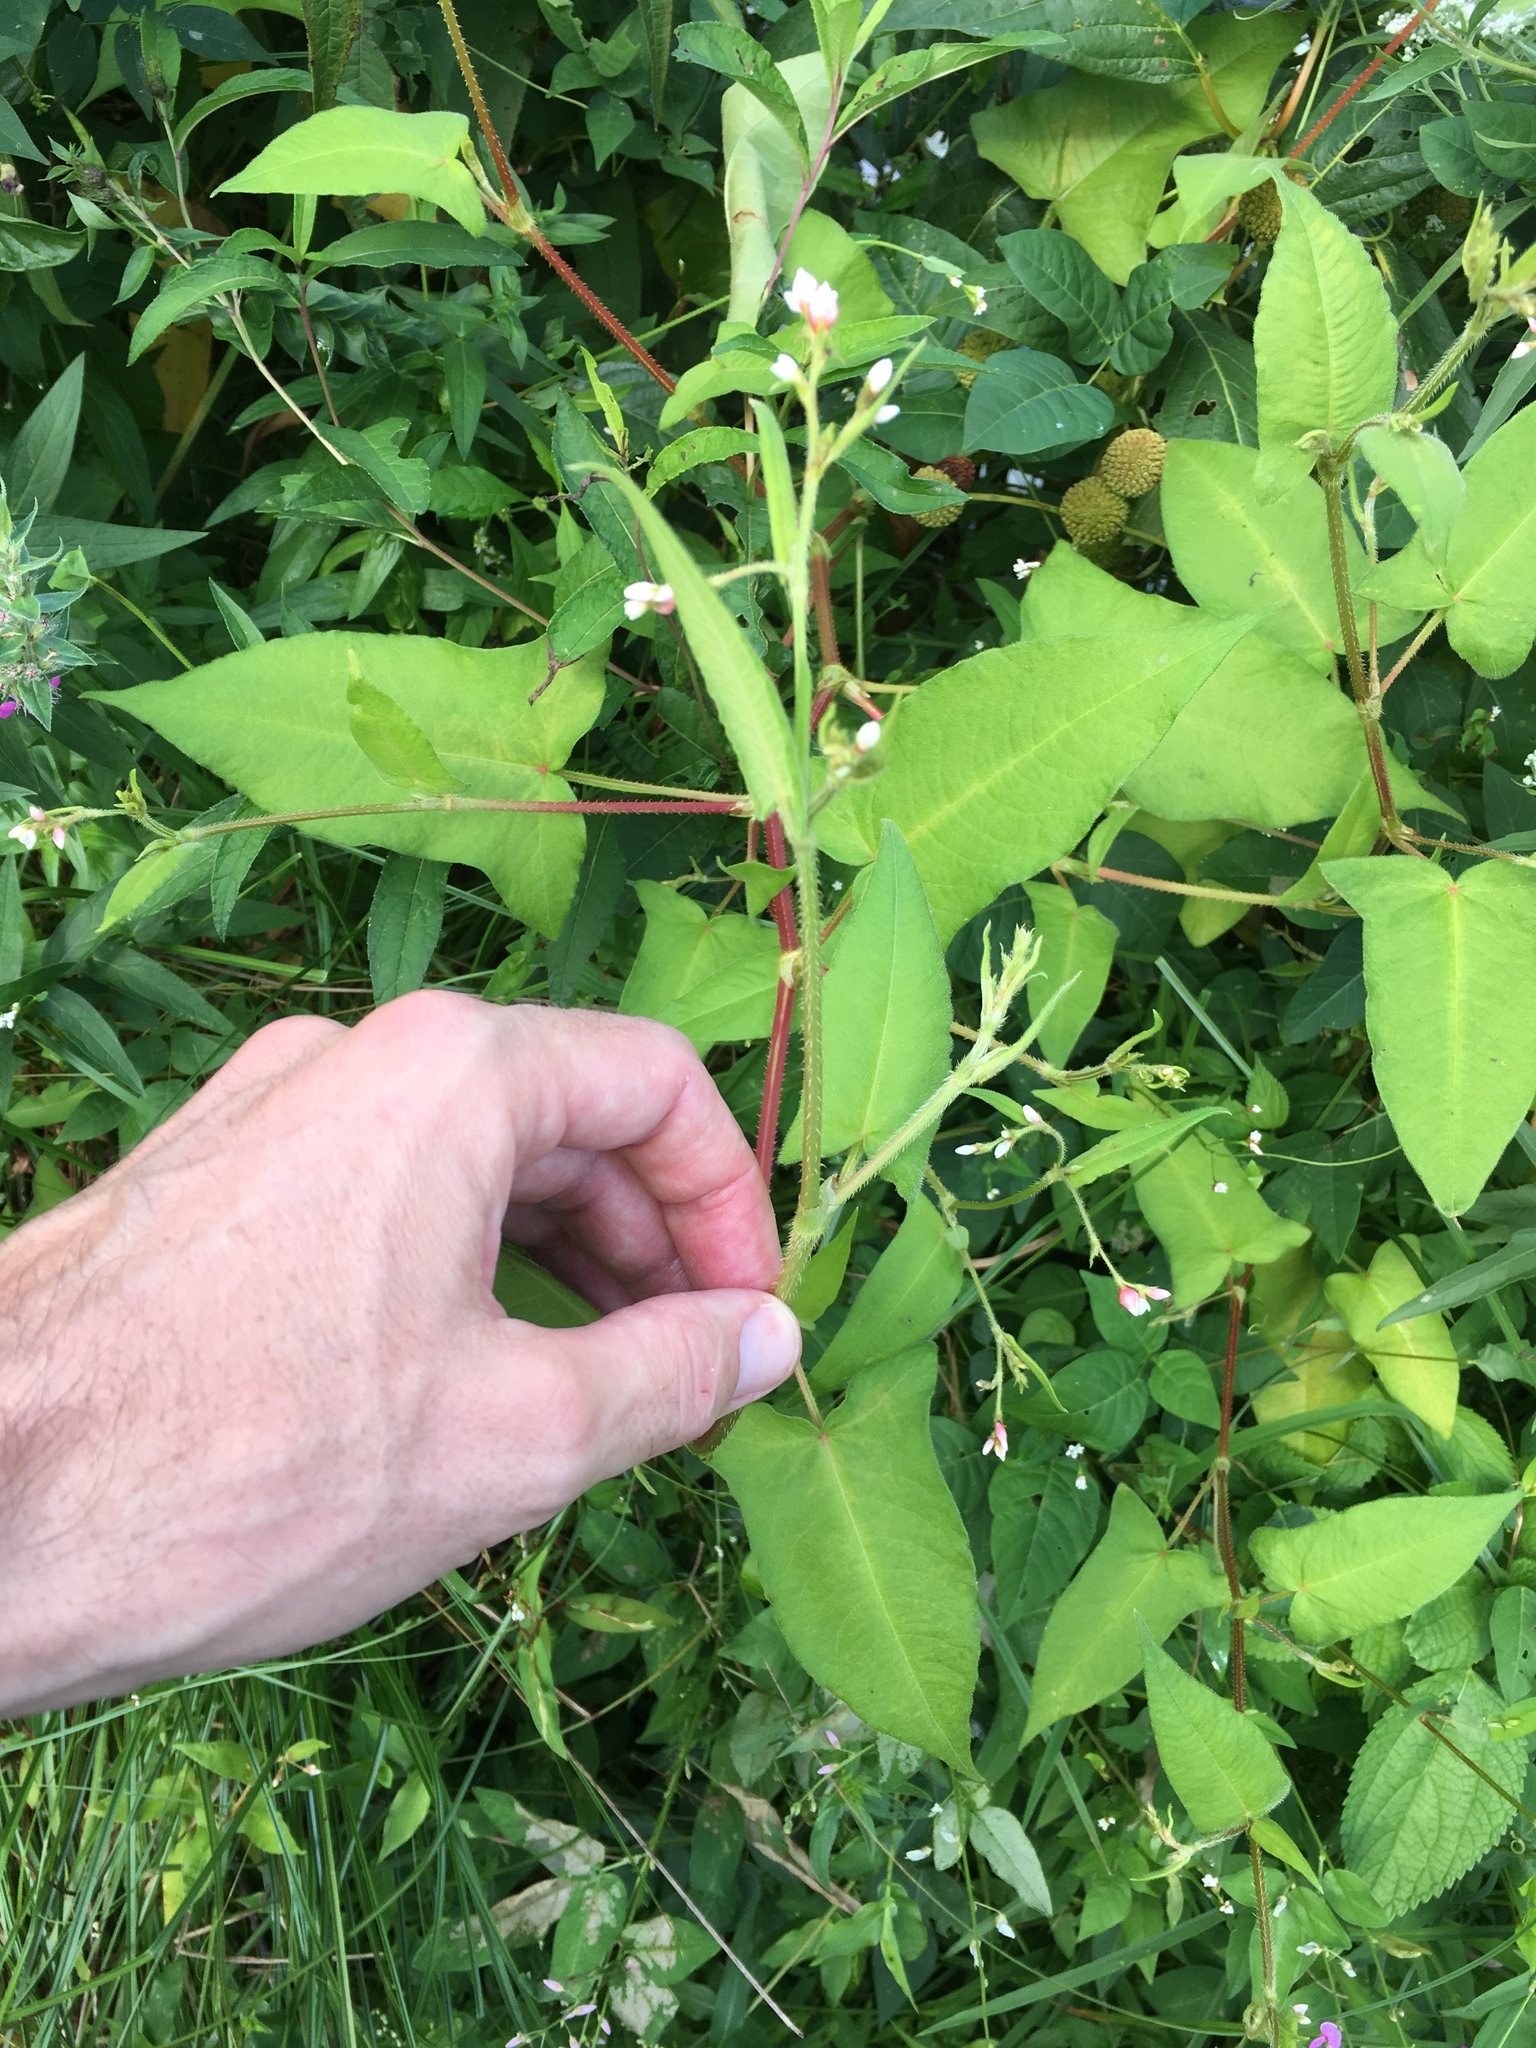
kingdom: Plantae
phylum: Tracheophyta
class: Magnoliopsida
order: Caryophyllales
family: Polygonaceae
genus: Persicaria
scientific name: Persicaria arifolia
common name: Halberd-leaved tear-thumb
